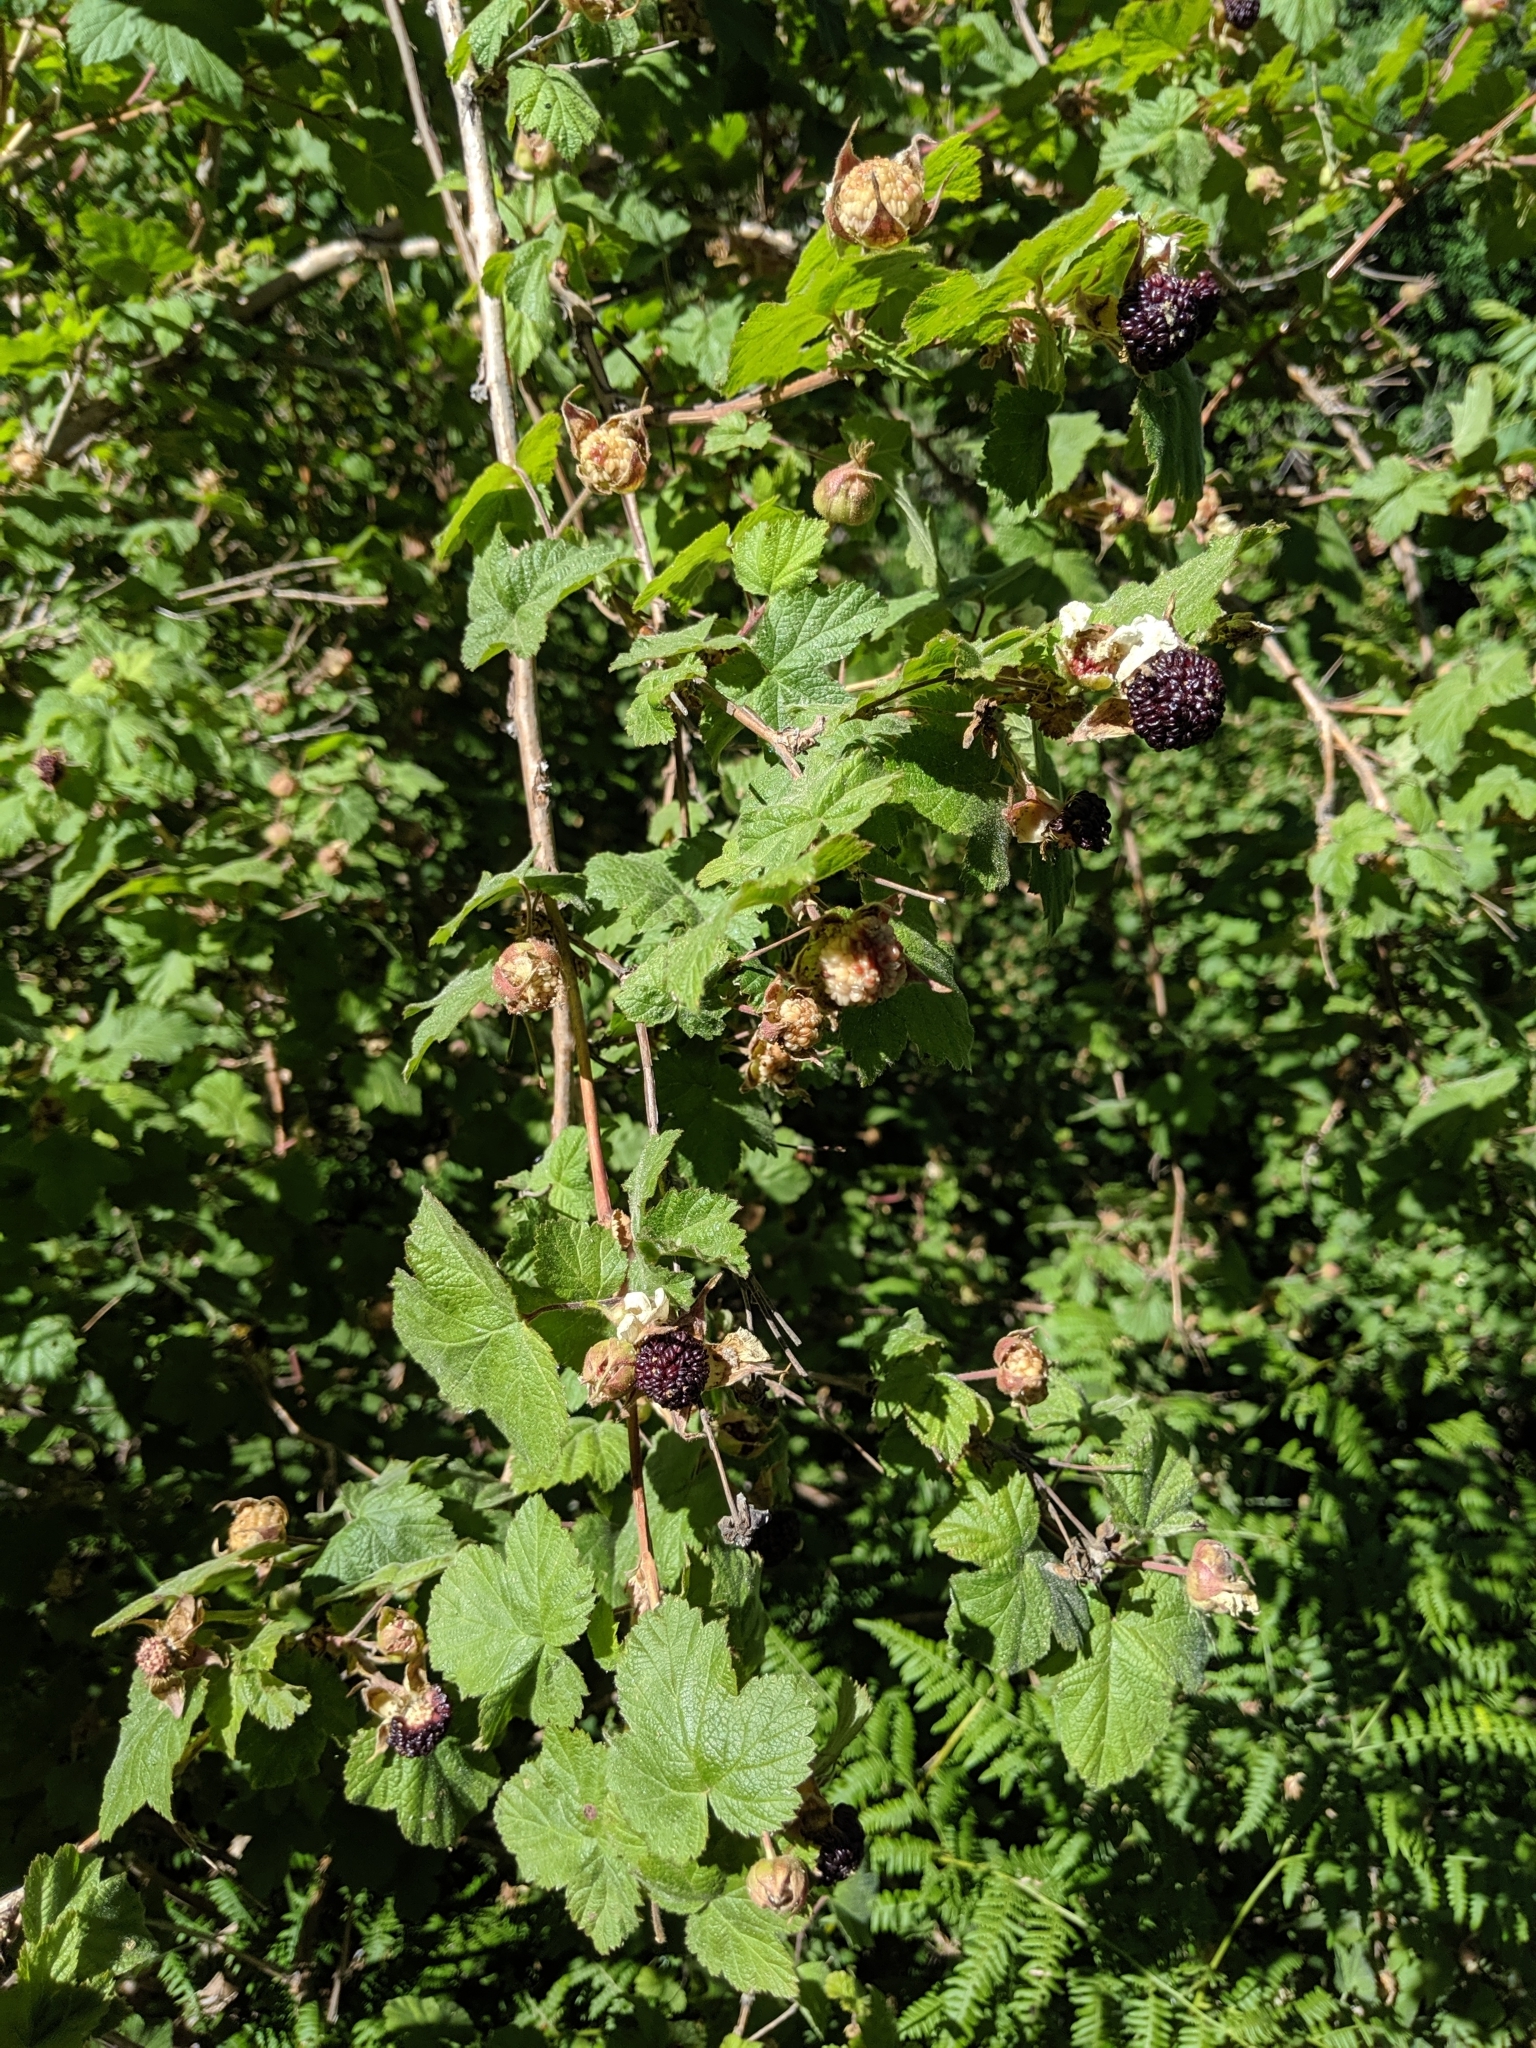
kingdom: Plantae
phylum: Tracheophyta
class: Magnoliopsida
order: Rosales
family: Rosaceae
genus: Rubus
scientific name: Rubus neomexicanus
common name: New mexico raspberry
